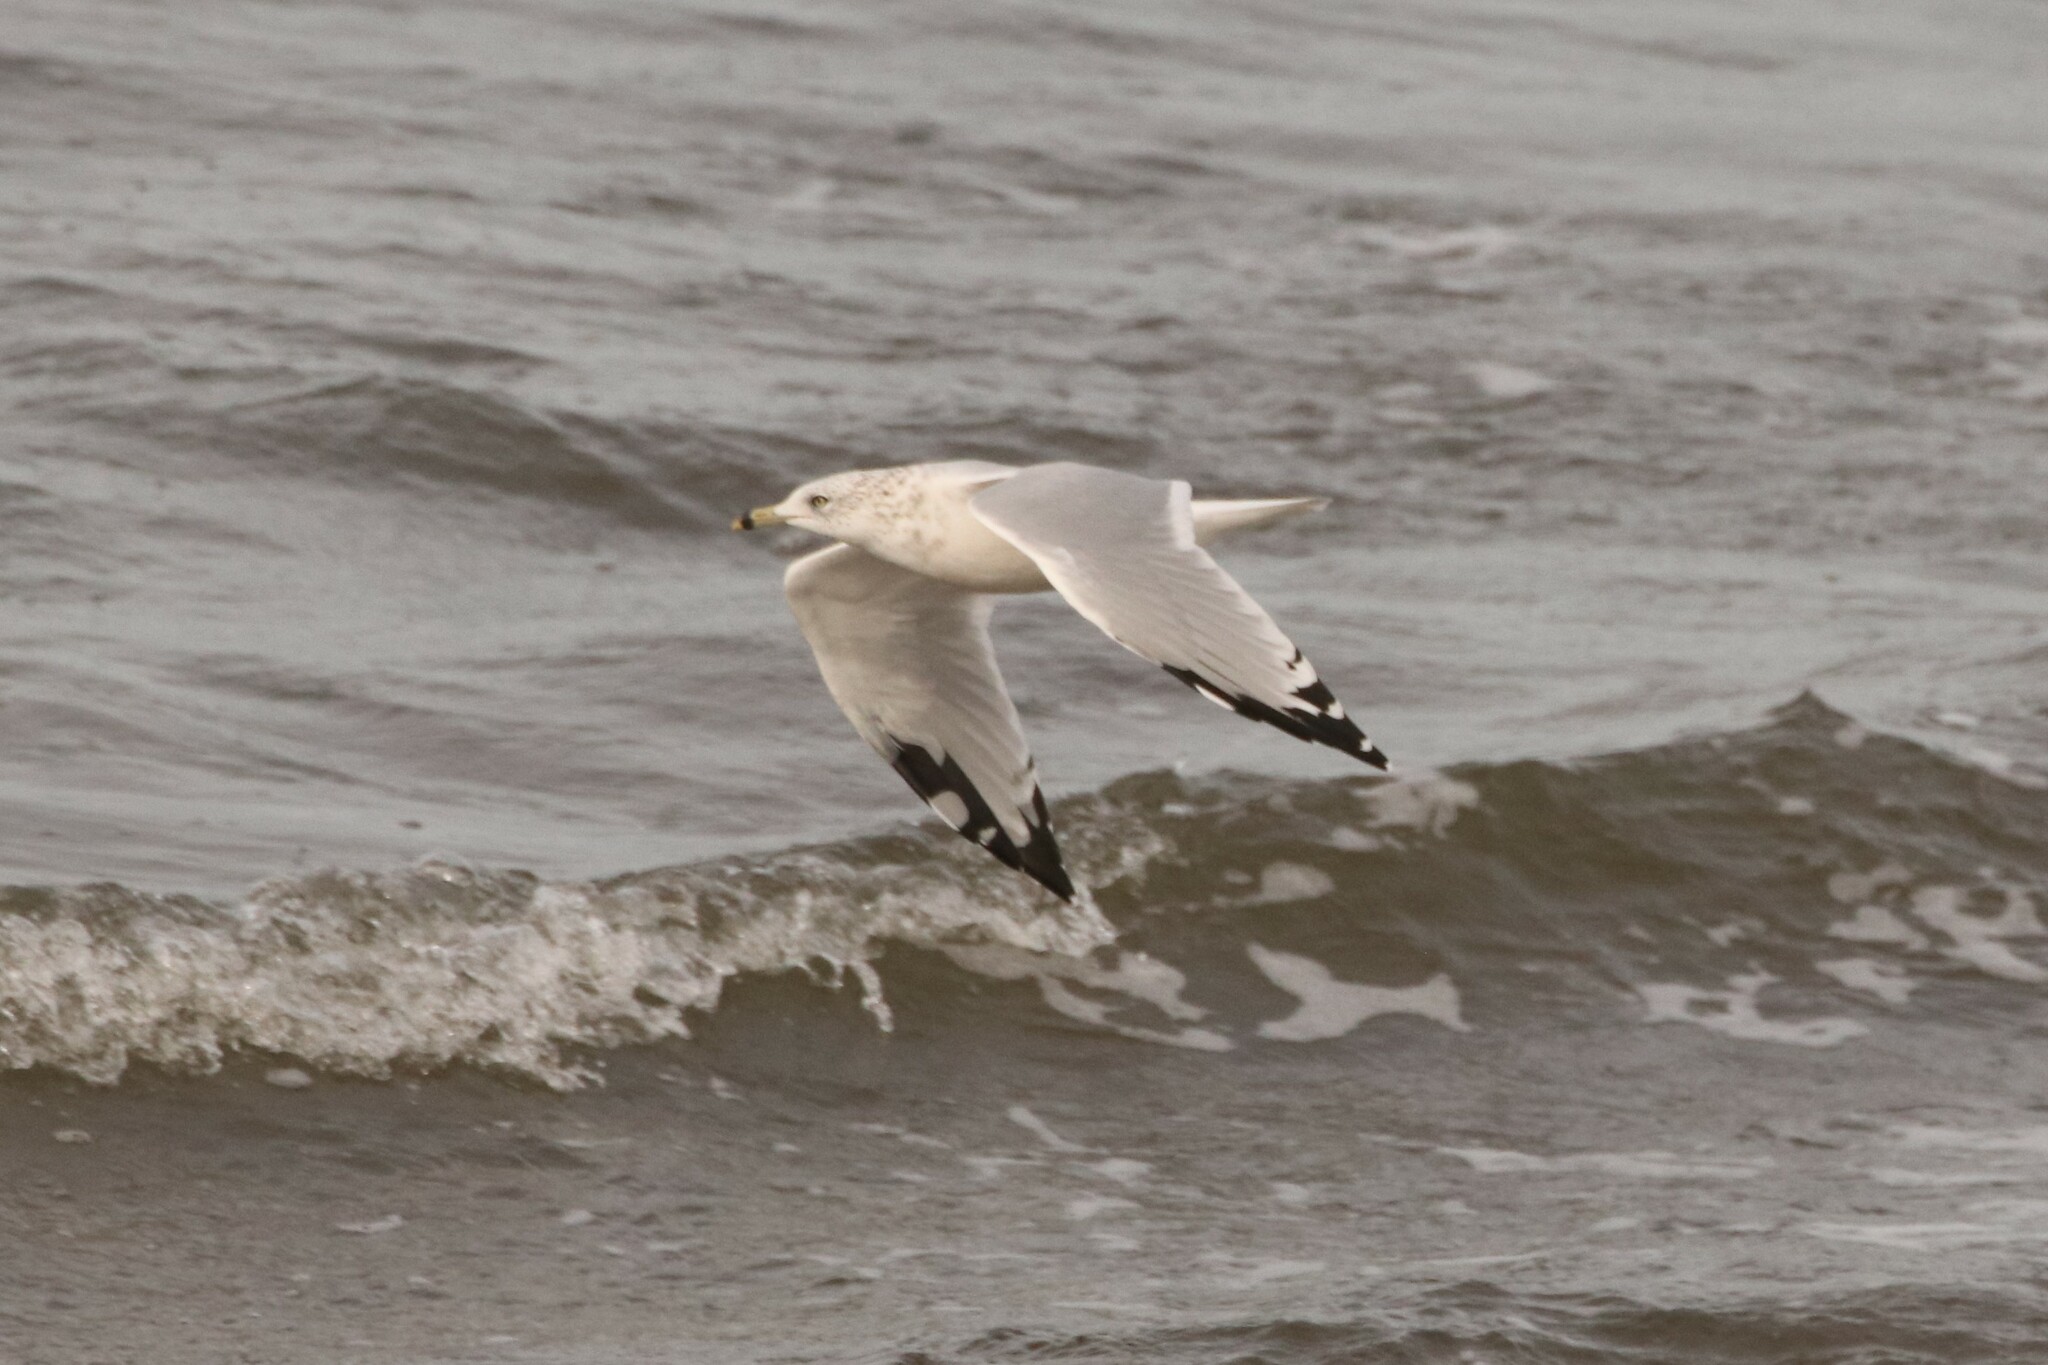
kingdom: Animalia
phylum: Chordata
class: Aves
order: Charadriiformes
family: Laridae
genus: Larus
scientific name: Larus delawarensis
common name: Ring-billed gull
